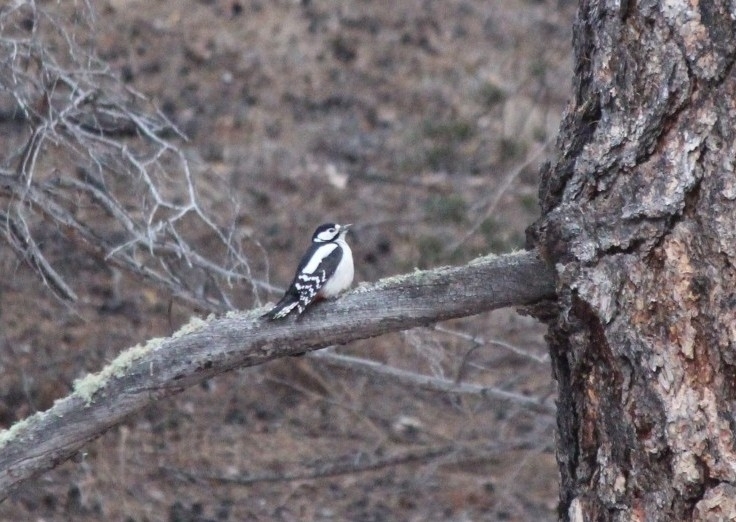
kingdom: Animalia
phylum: Chordata
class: Aves
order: Piciformes
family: Picidae
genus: Dendrocopos
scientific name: Dendrocopos major
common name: Great spotted woodpecker
